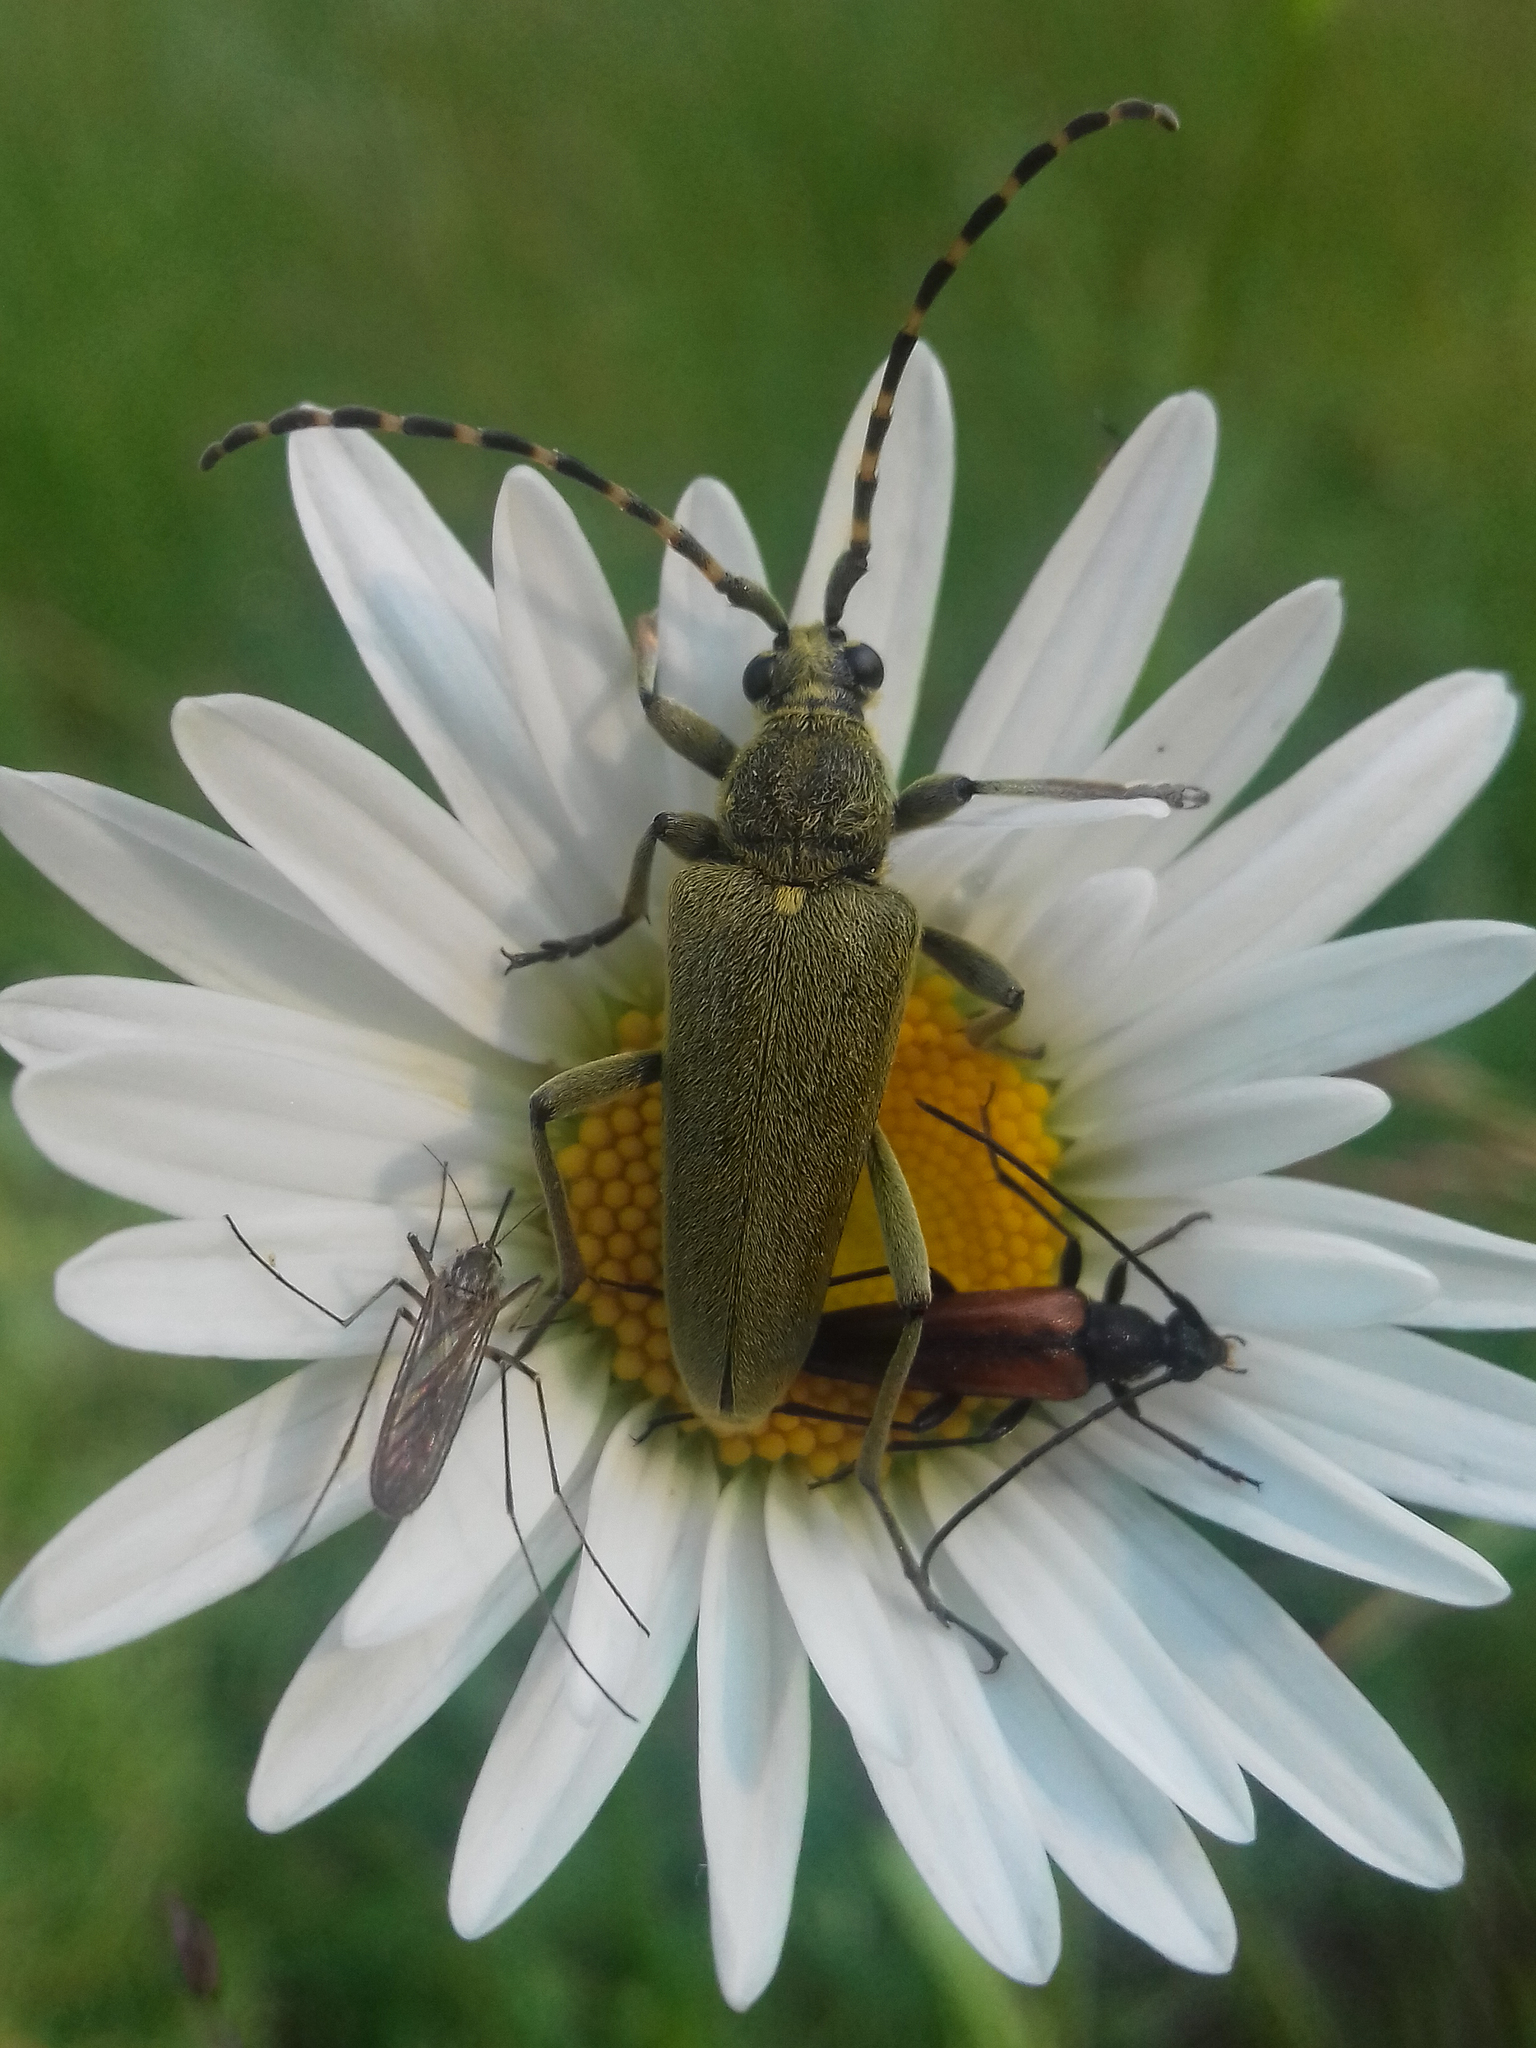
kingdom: Animalia
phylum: Arthropoda
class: Insecta
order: Coleoptera
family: Cerambycidae
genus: Lepturobosca
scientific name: Lepturobosca virens
